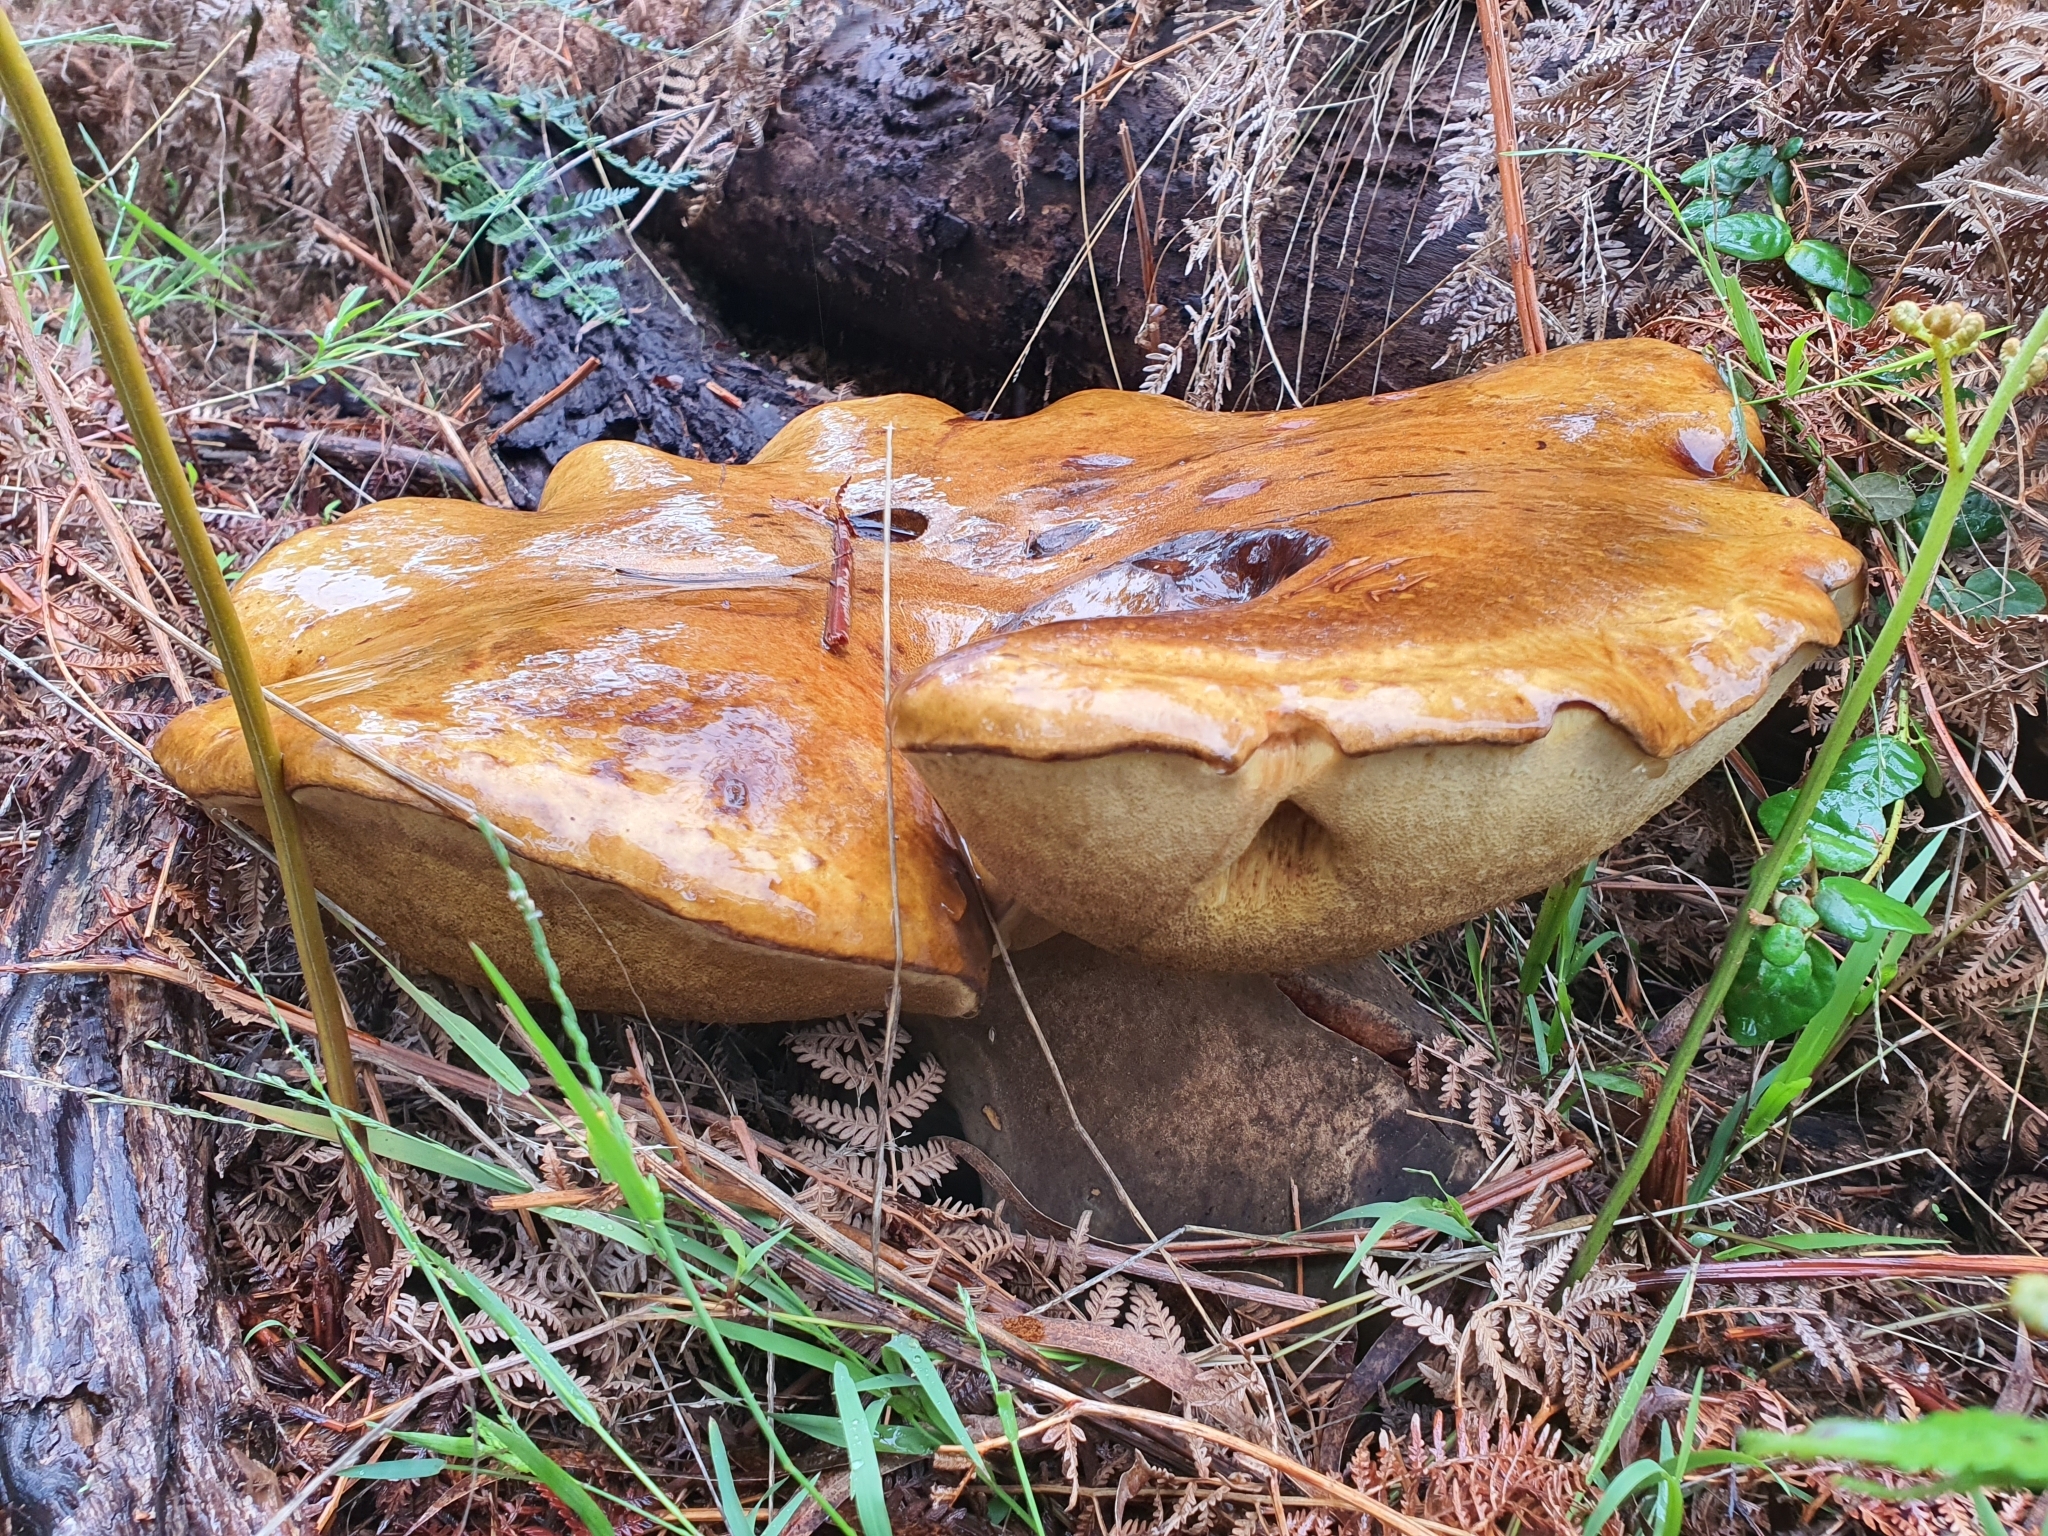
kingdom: Fungi
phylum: Basidiomycota
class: Agaricomycetes
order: Boletales
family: Boletinellaceae
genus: Phlebopus
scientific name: Phlebopus marginatus
